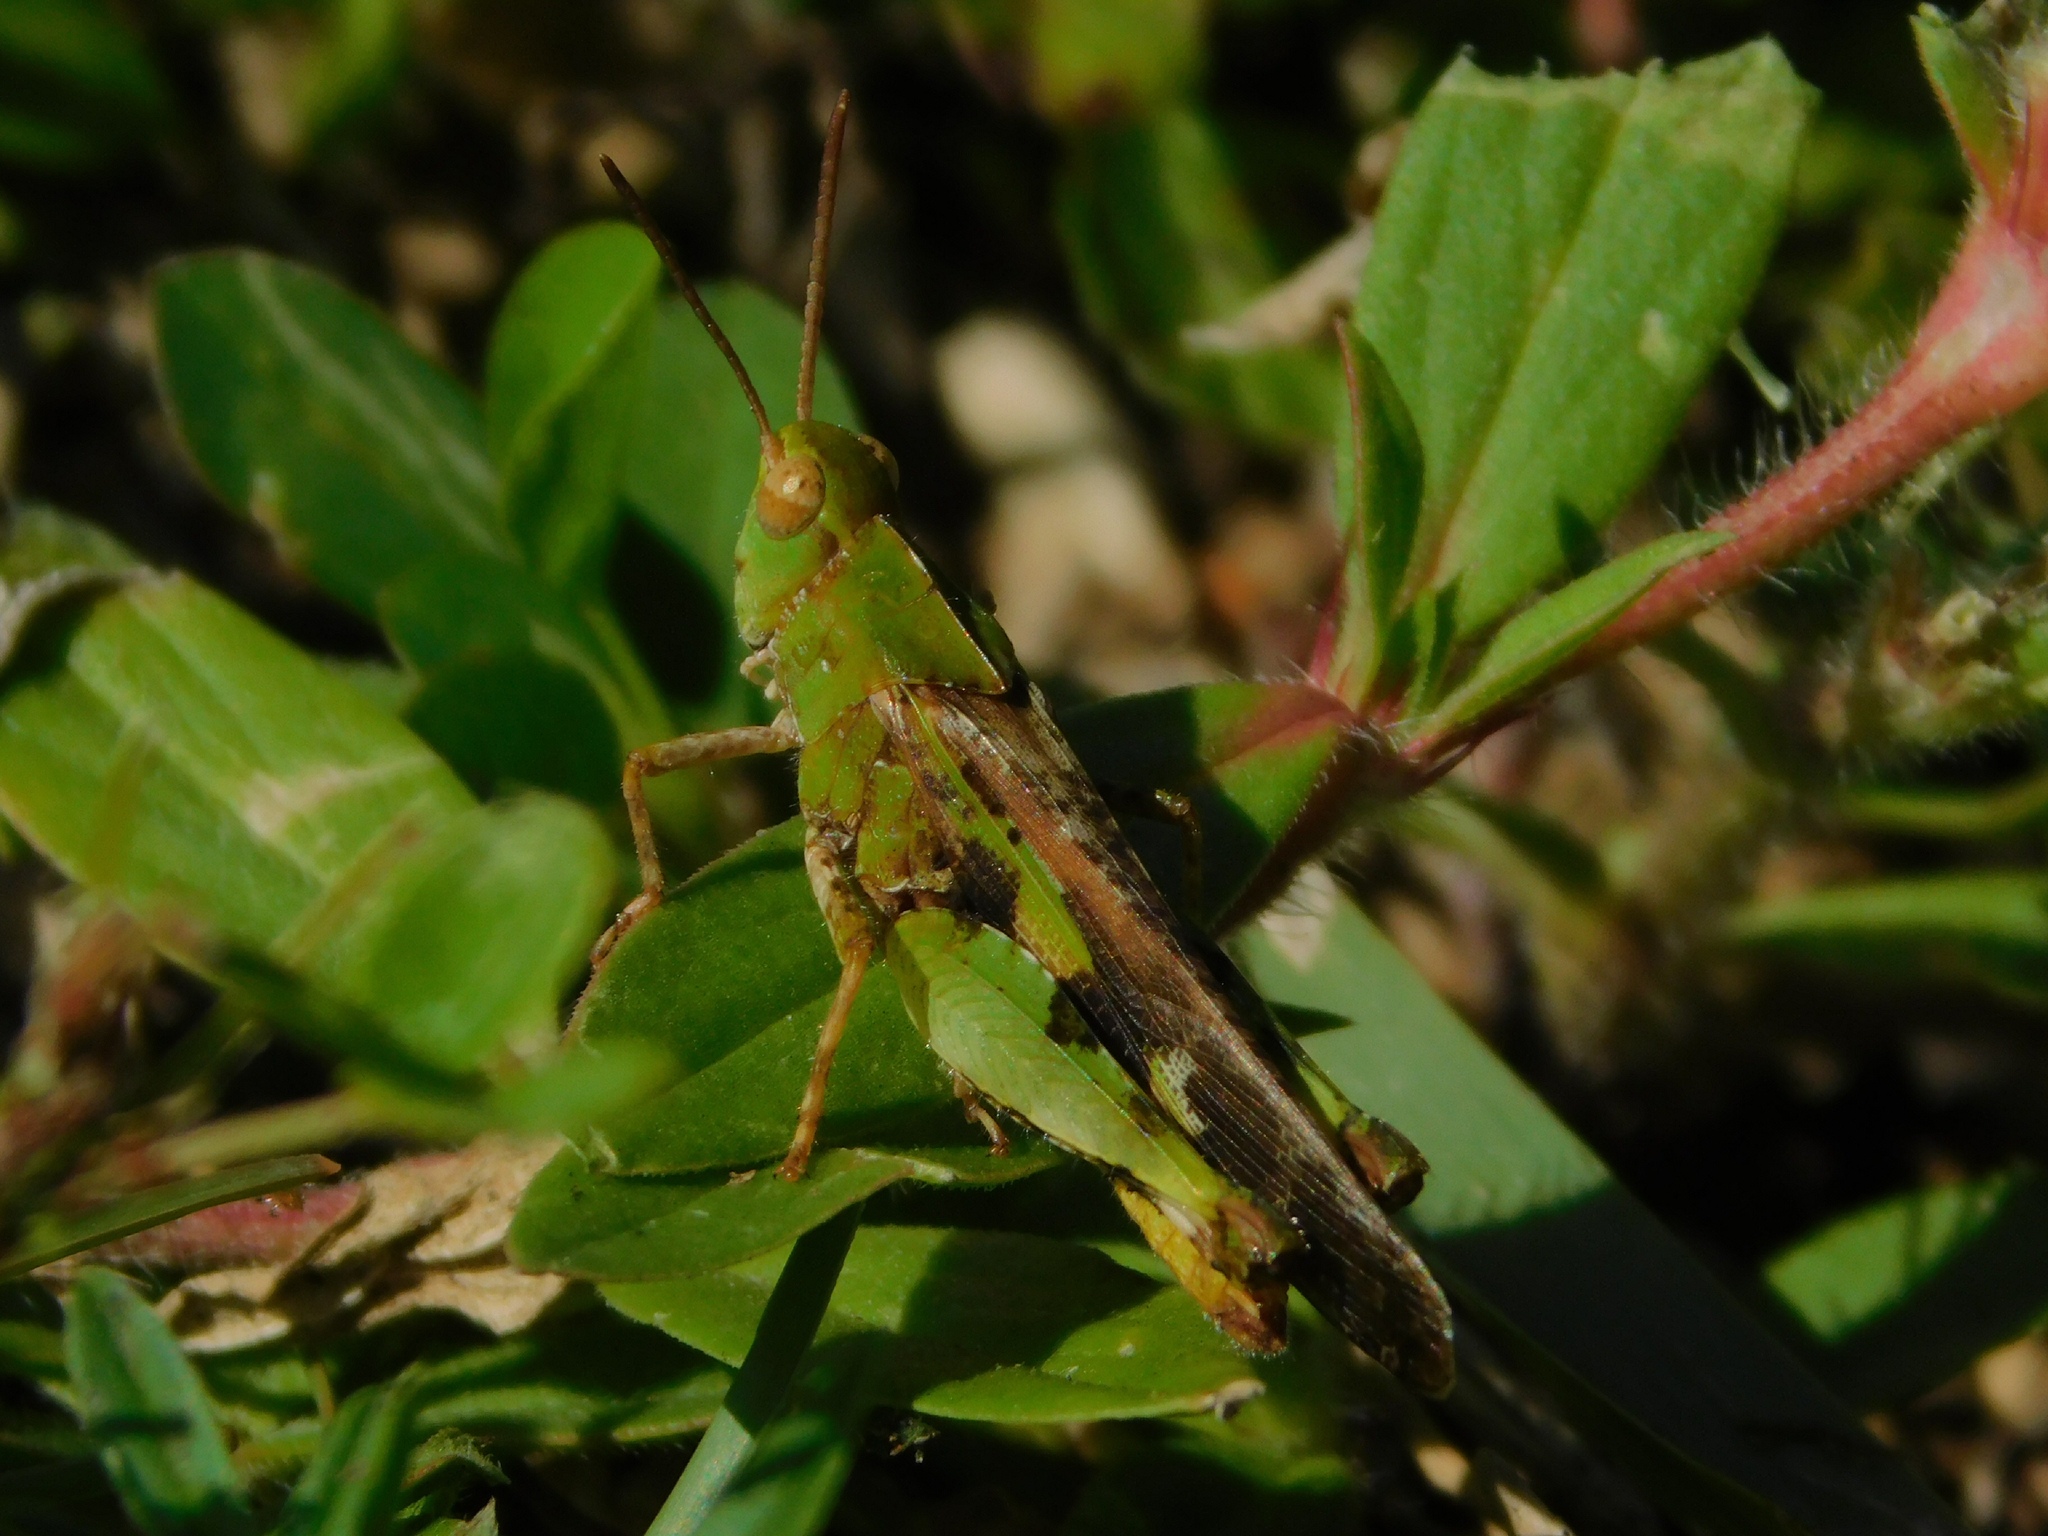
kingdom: Animalia
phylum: Arthropoda
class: Insecta
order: Orthoptera
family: Acrididae
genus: Chortophaga
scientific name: Chortophaga australior
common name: Southern green-striped grasshopper
